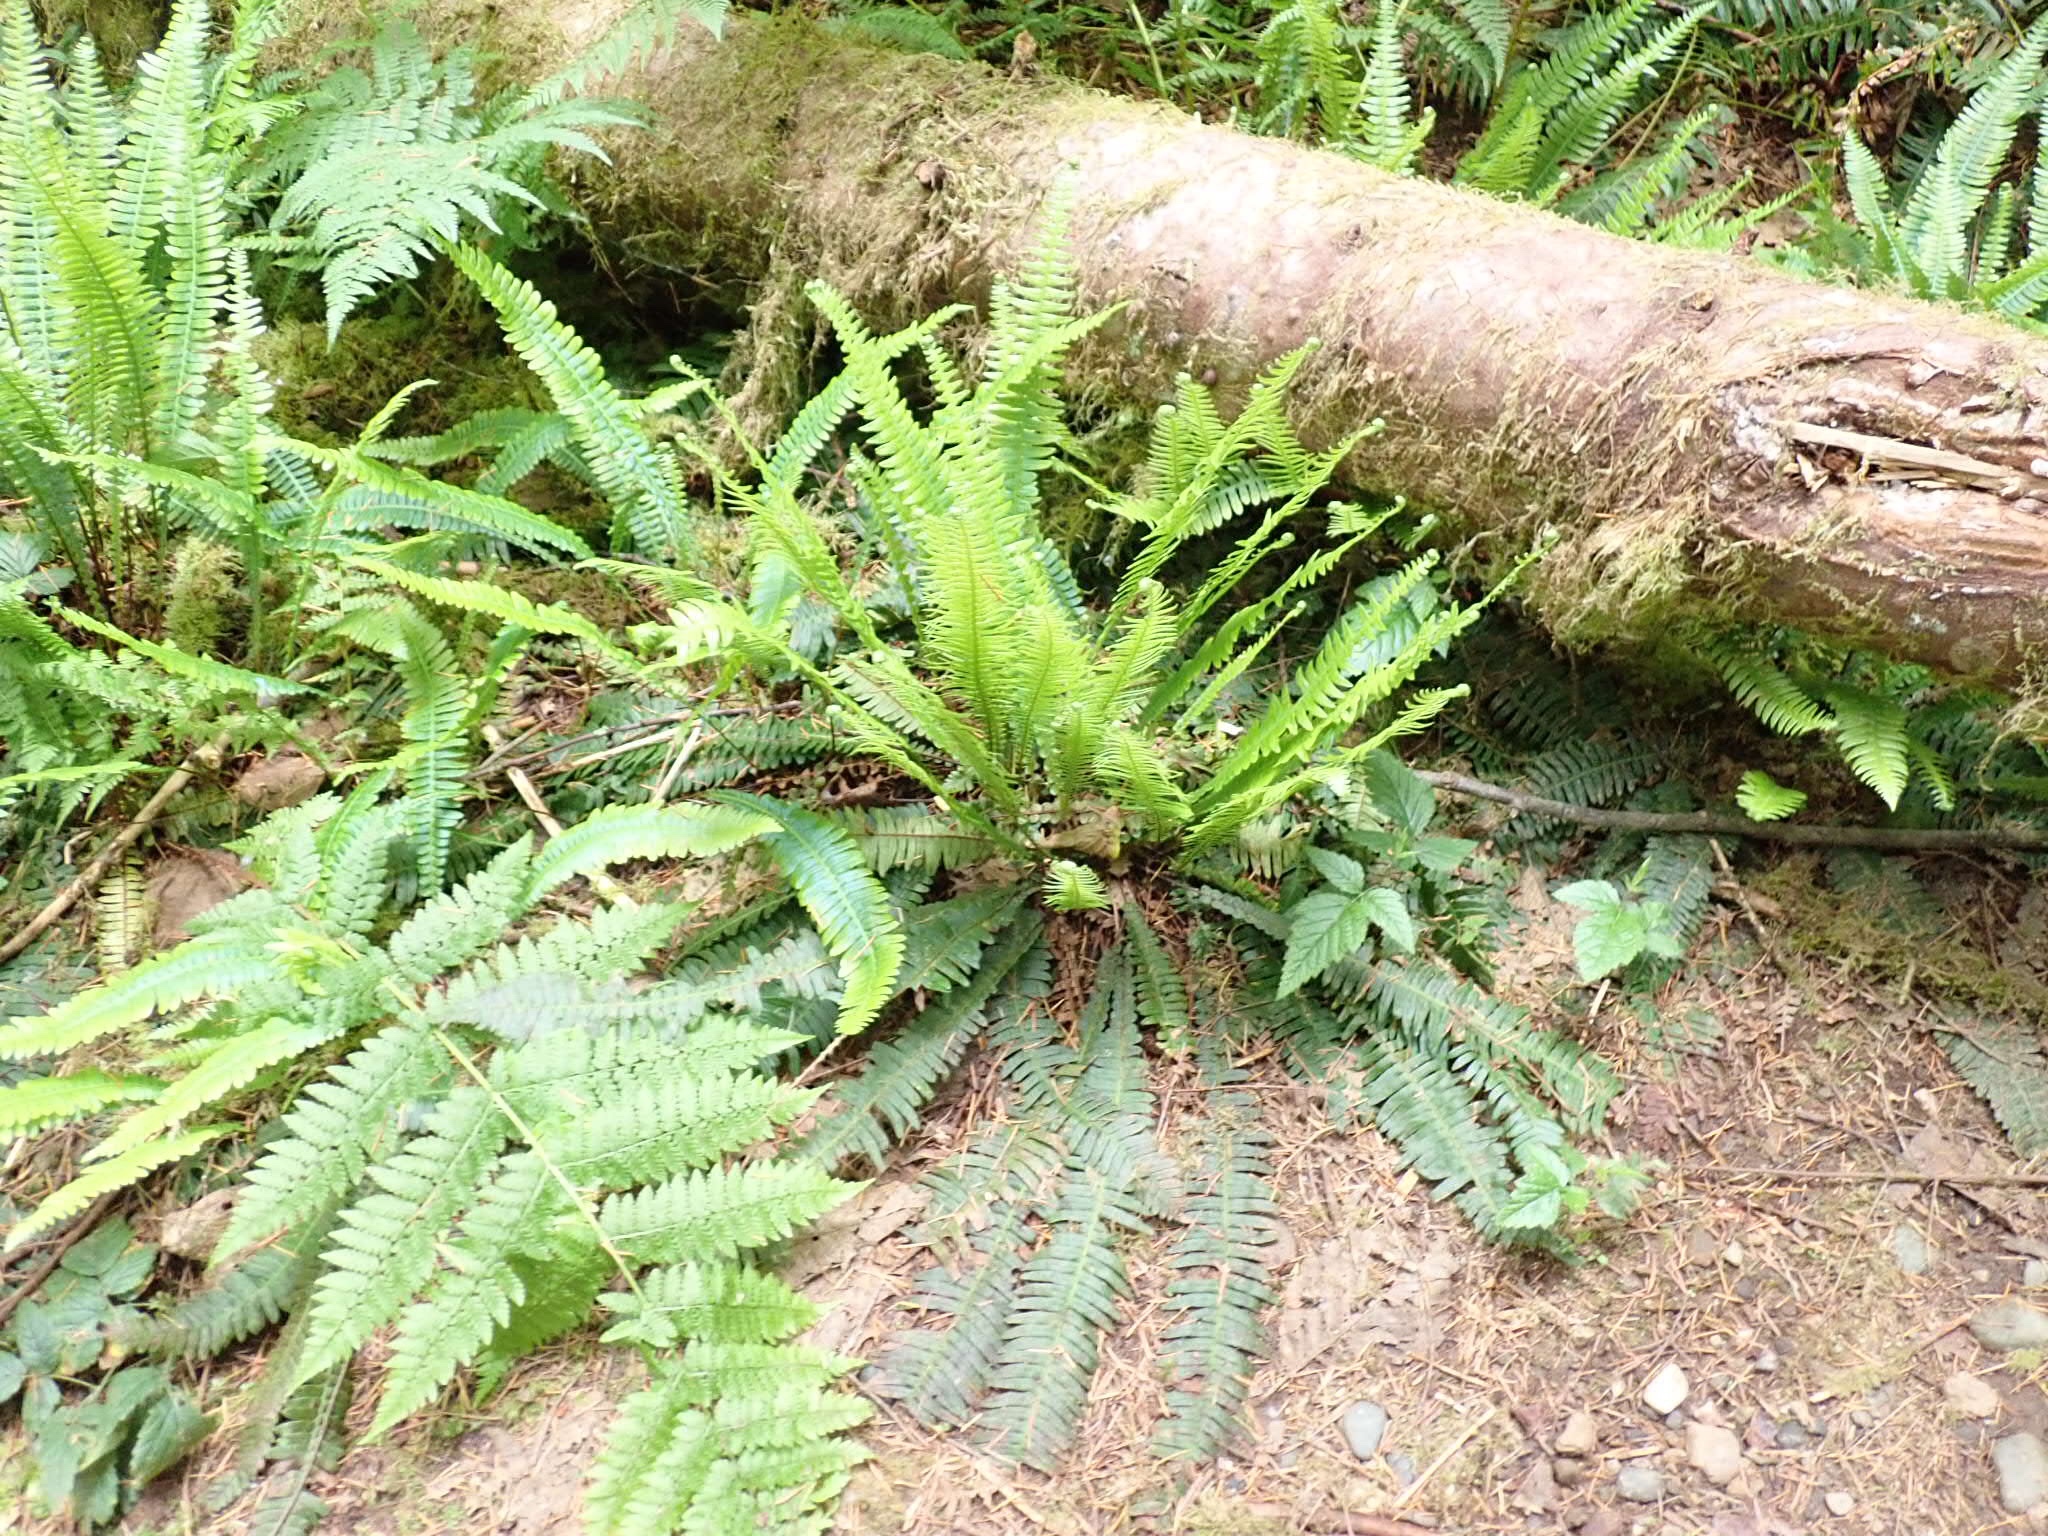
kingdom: Plantae
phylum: Tracheophyta
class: Polypodiopsida
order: Polypodiales
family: Blechnaceae
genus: Struthiopteris
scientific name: Struthiopteris spicant
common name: Deer fern
